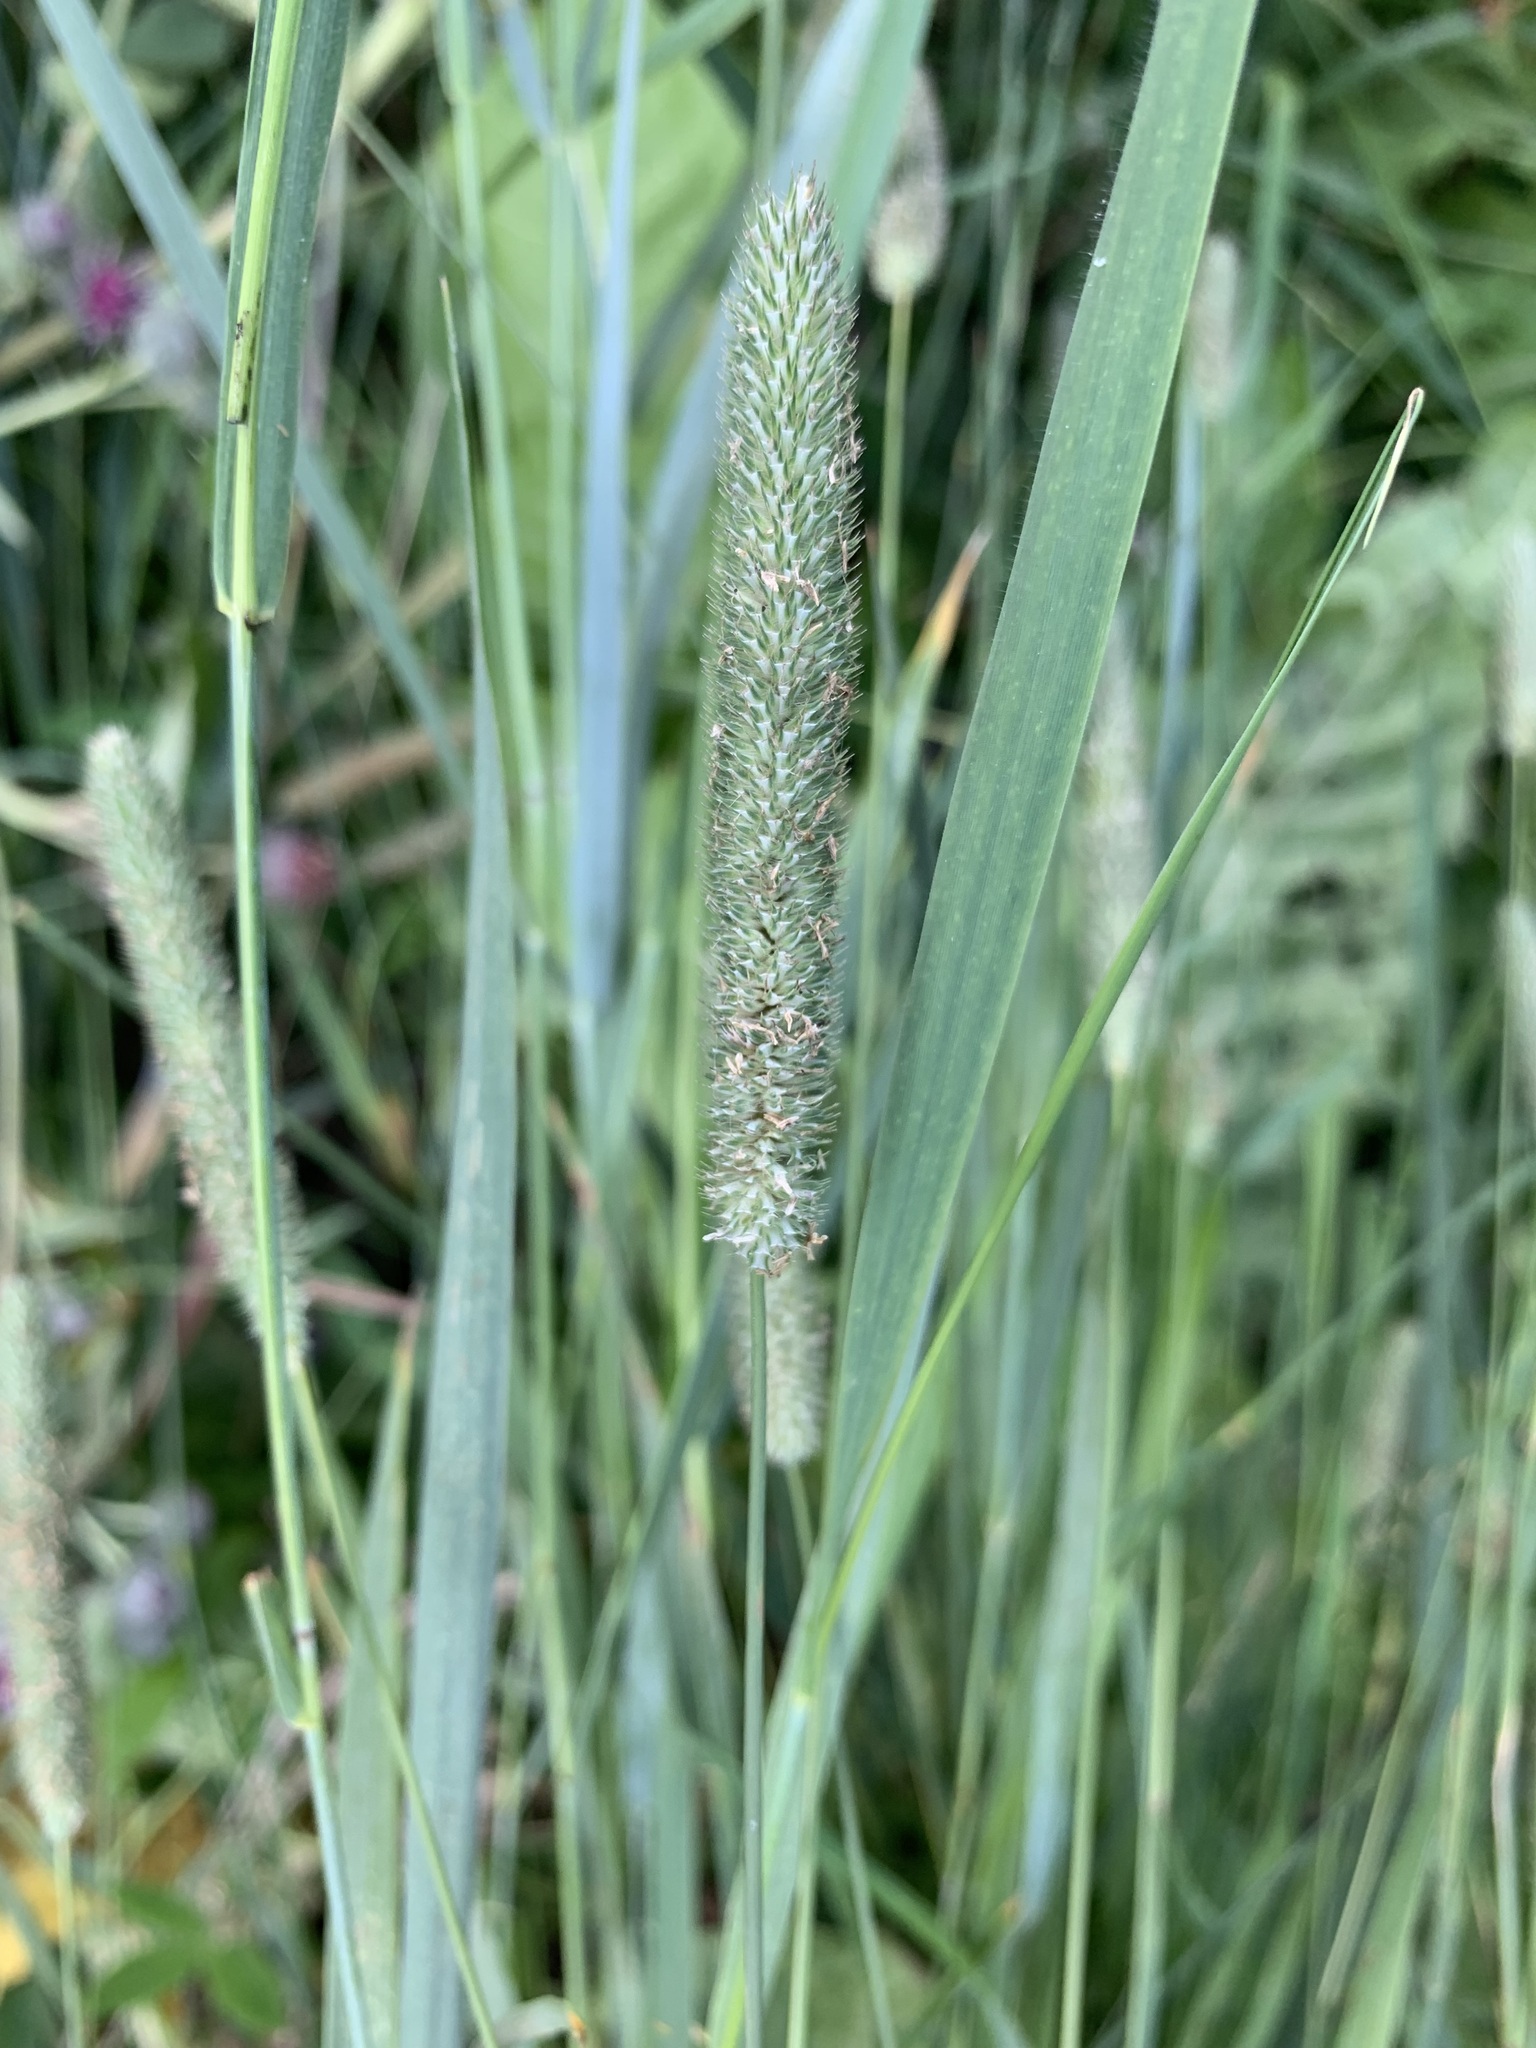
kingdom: Plantae
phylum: Tracheophyta
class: Liliopsida
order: Poales
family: Poaceae
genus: Phleum
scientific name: Phleum pratense
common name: Timothy grass
